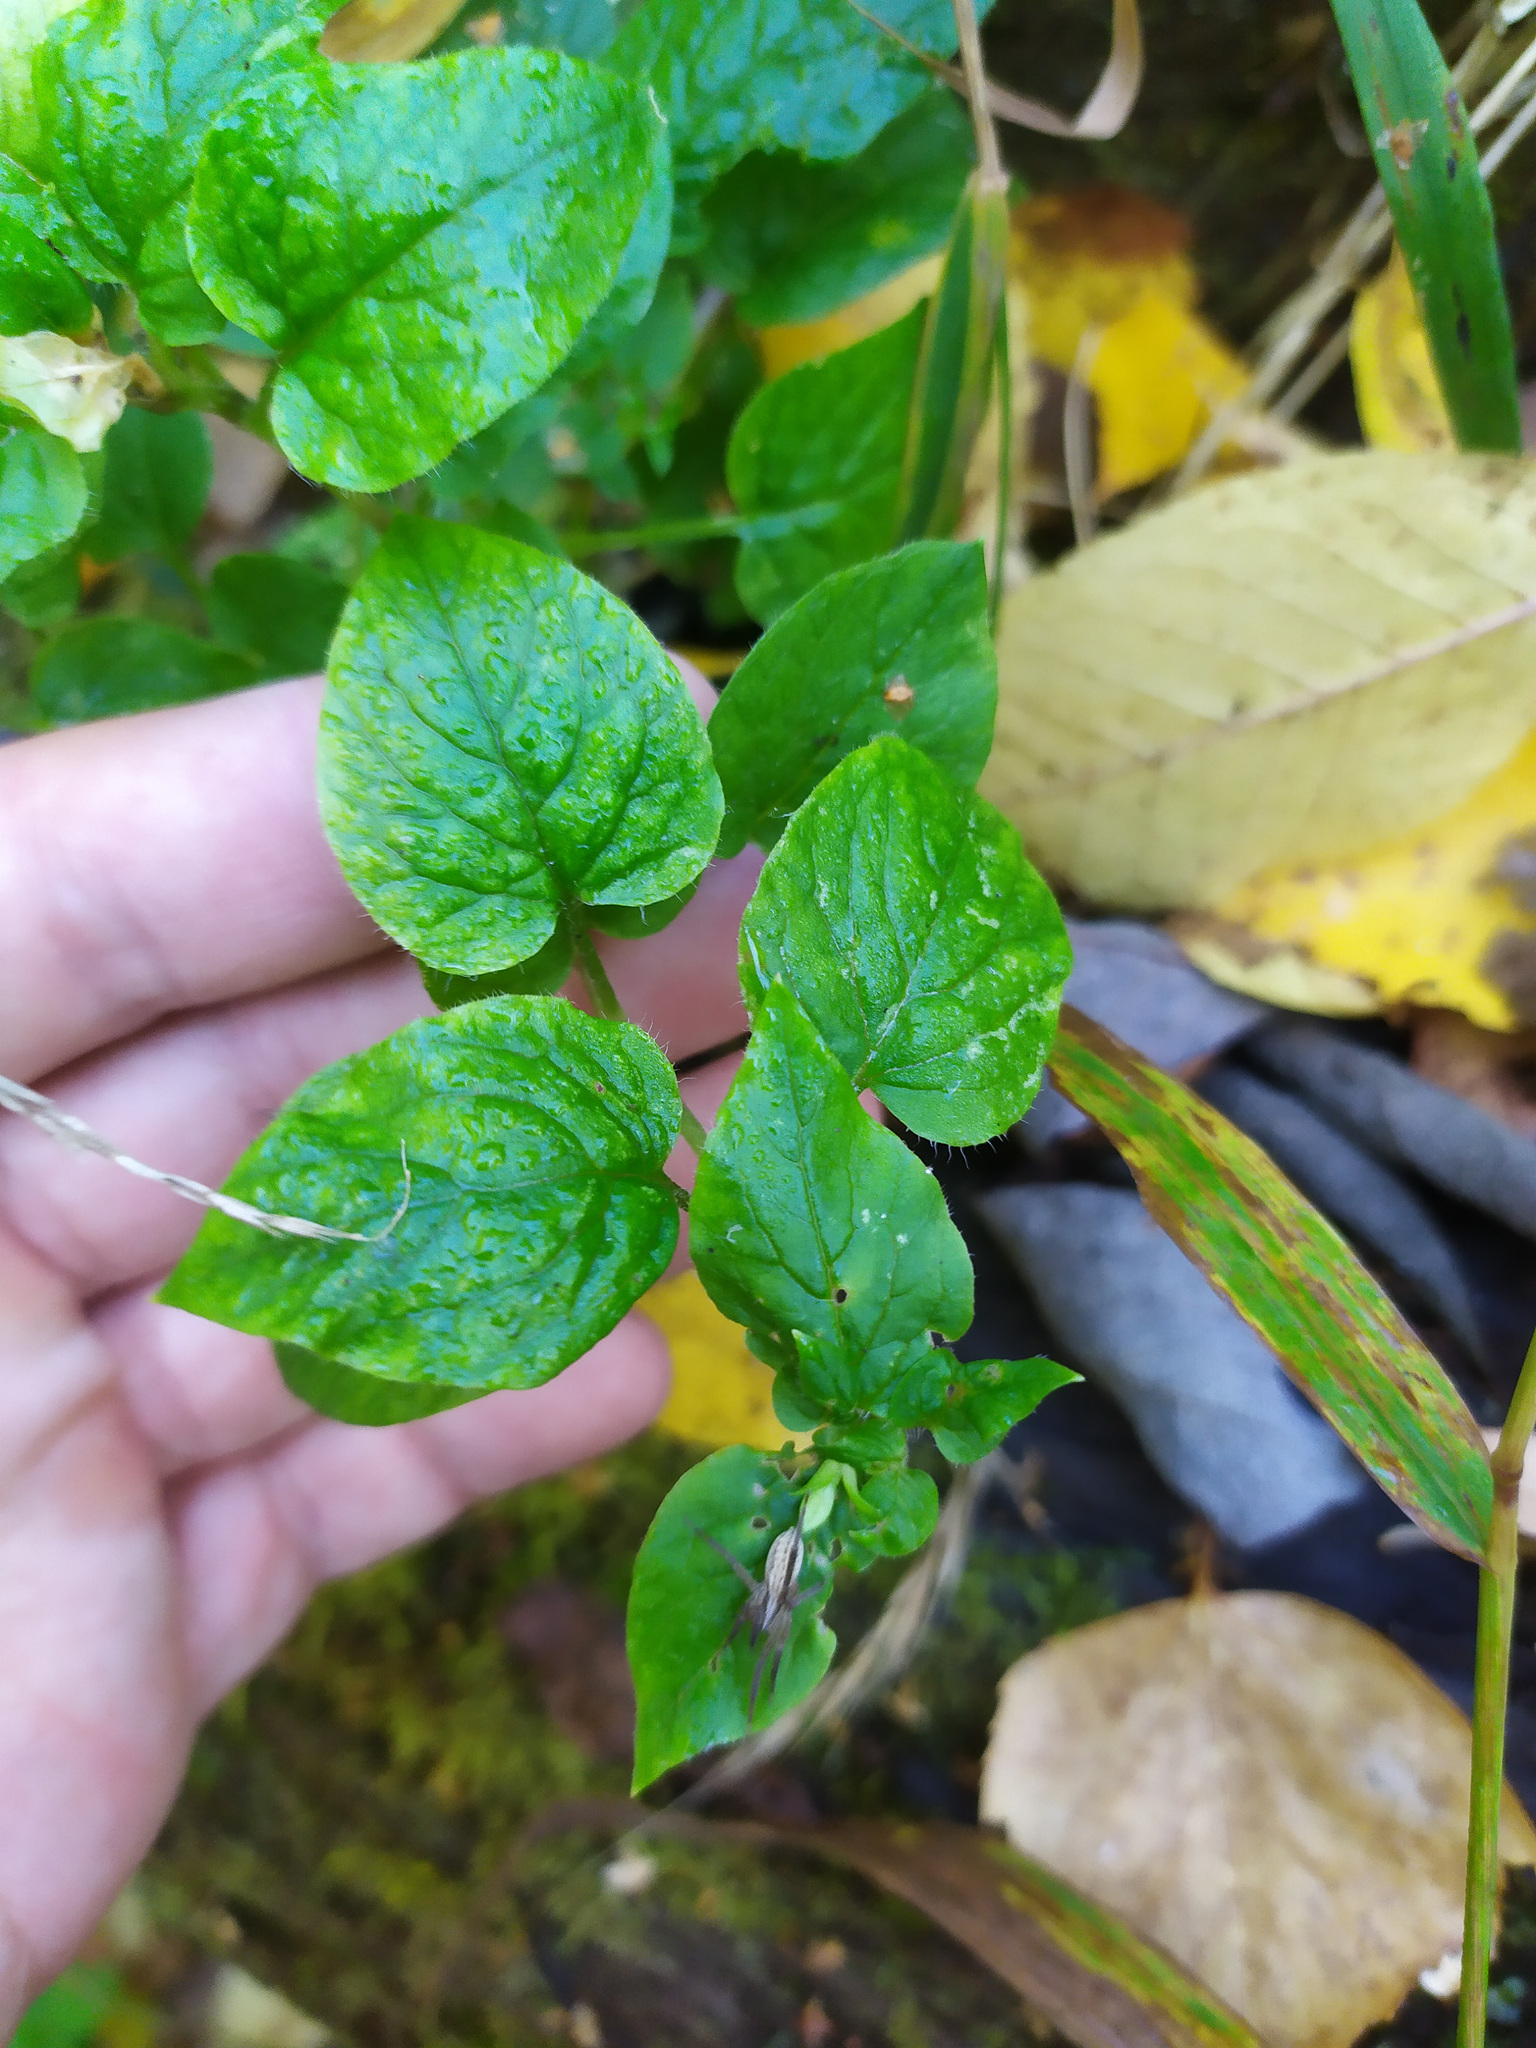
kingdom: Plantae
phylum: Tracheophyta
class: Magnoliopsida
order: Caryophyllales
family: Caryophyllaceae
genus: Stellaria
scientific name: Stellaria nemorum
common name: Wood stitchwort
